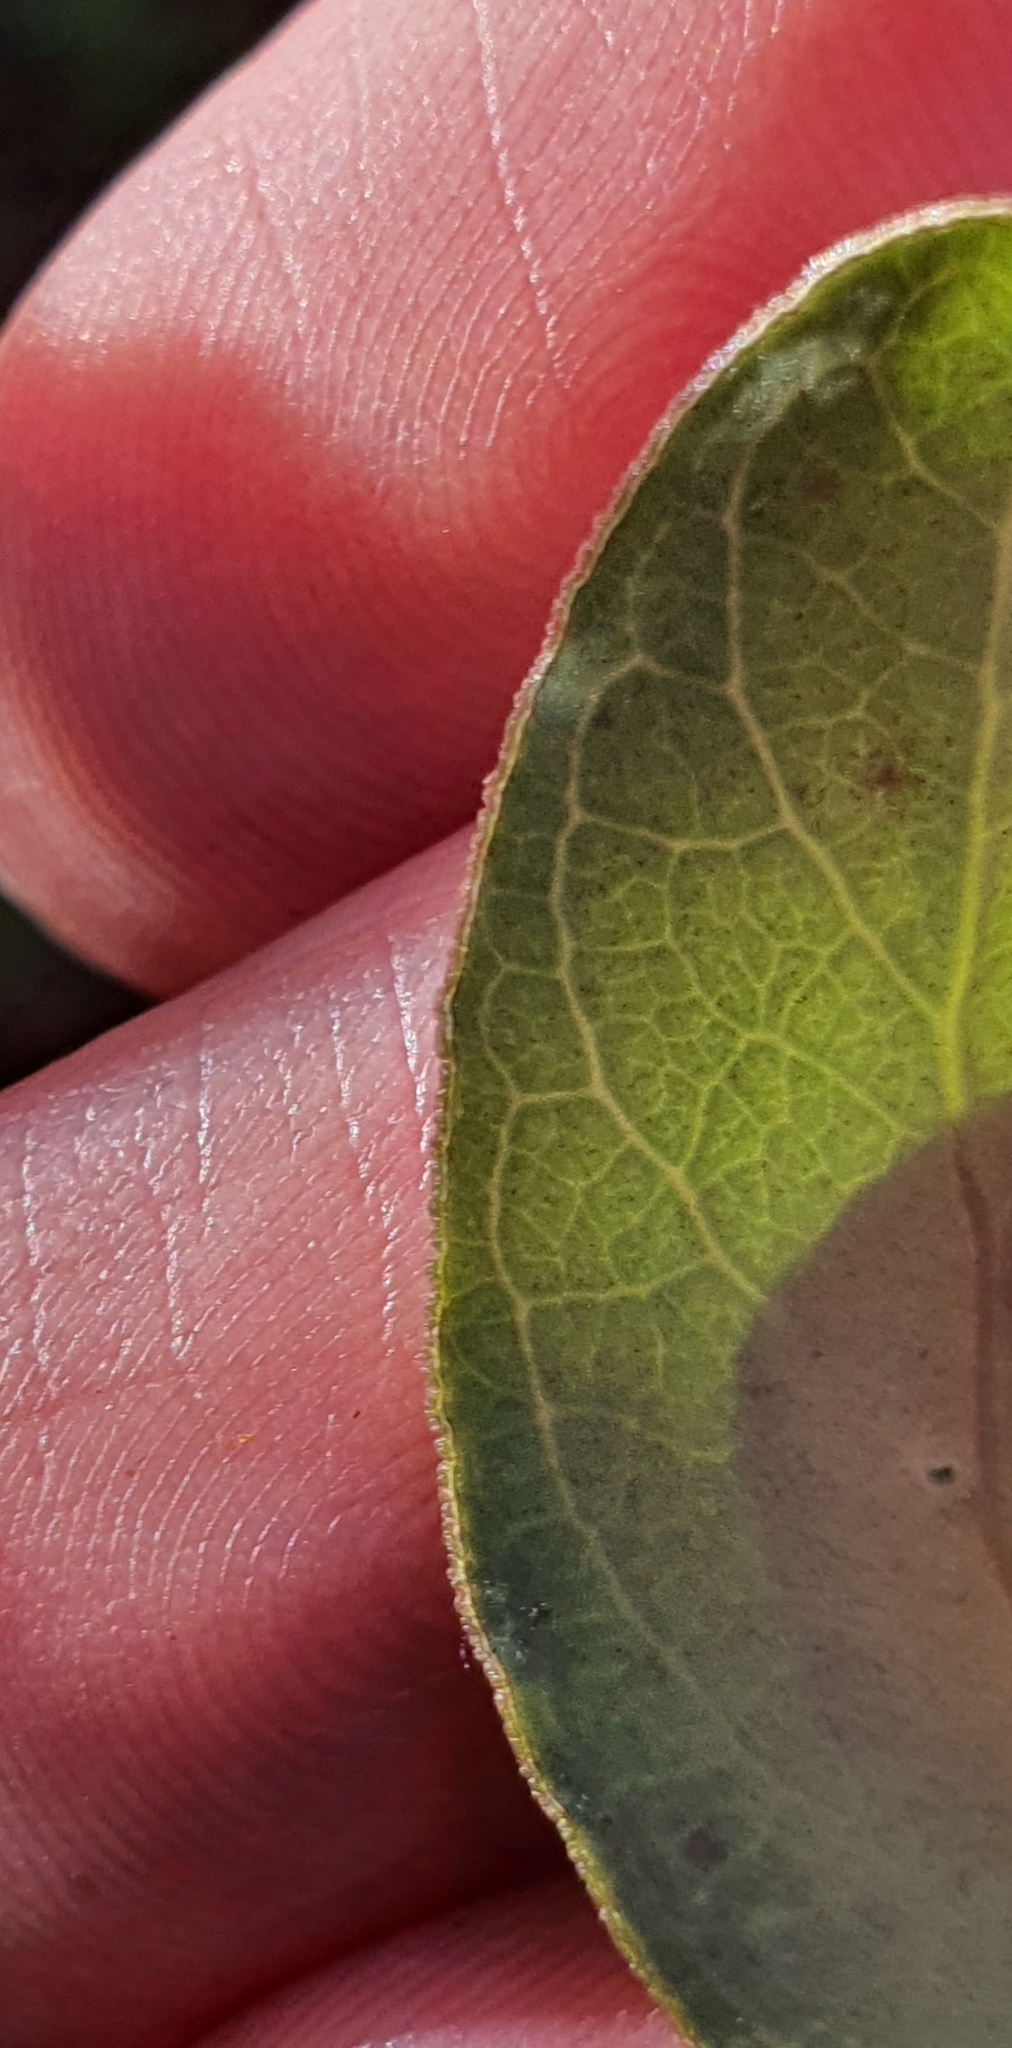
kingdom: Plantae
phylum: Tracheophyta
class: Magnoliopsida
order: Gentianales
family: Rubiaceae
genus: Coprosma
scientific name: Coprosma foetidissima
